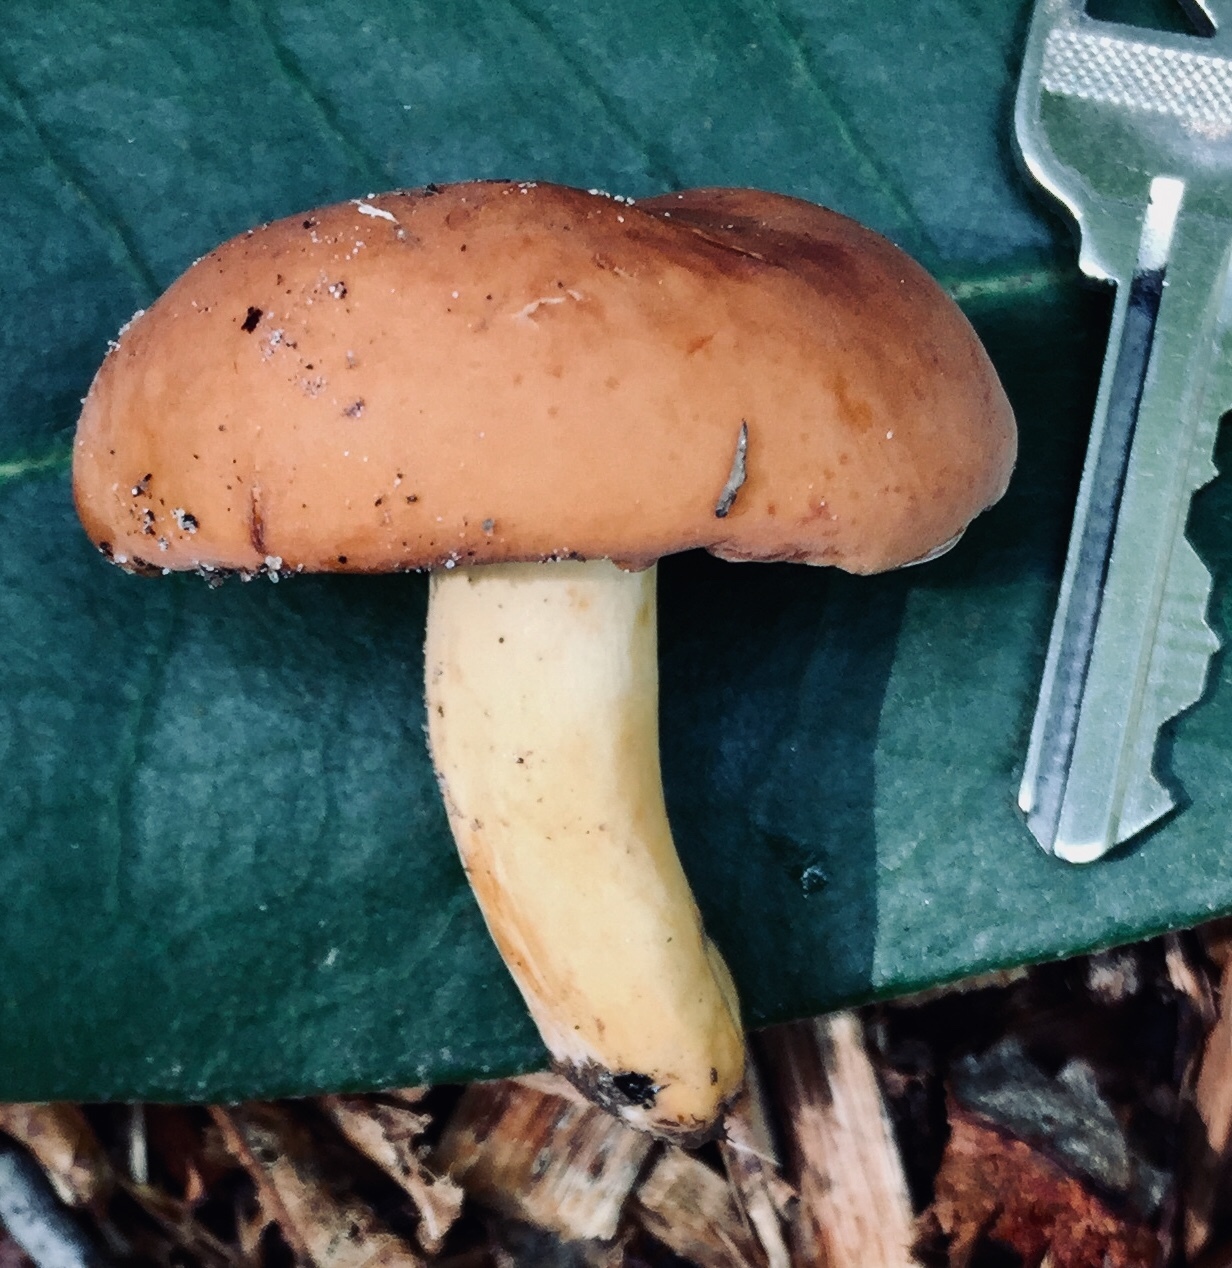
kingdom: Fungi
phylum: Basidiomycota
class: Agaricomycetes
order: Russulales
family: Russulaceae
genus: Lactifluus
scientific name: Lactifluus volemus
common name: Fishy milkcap
